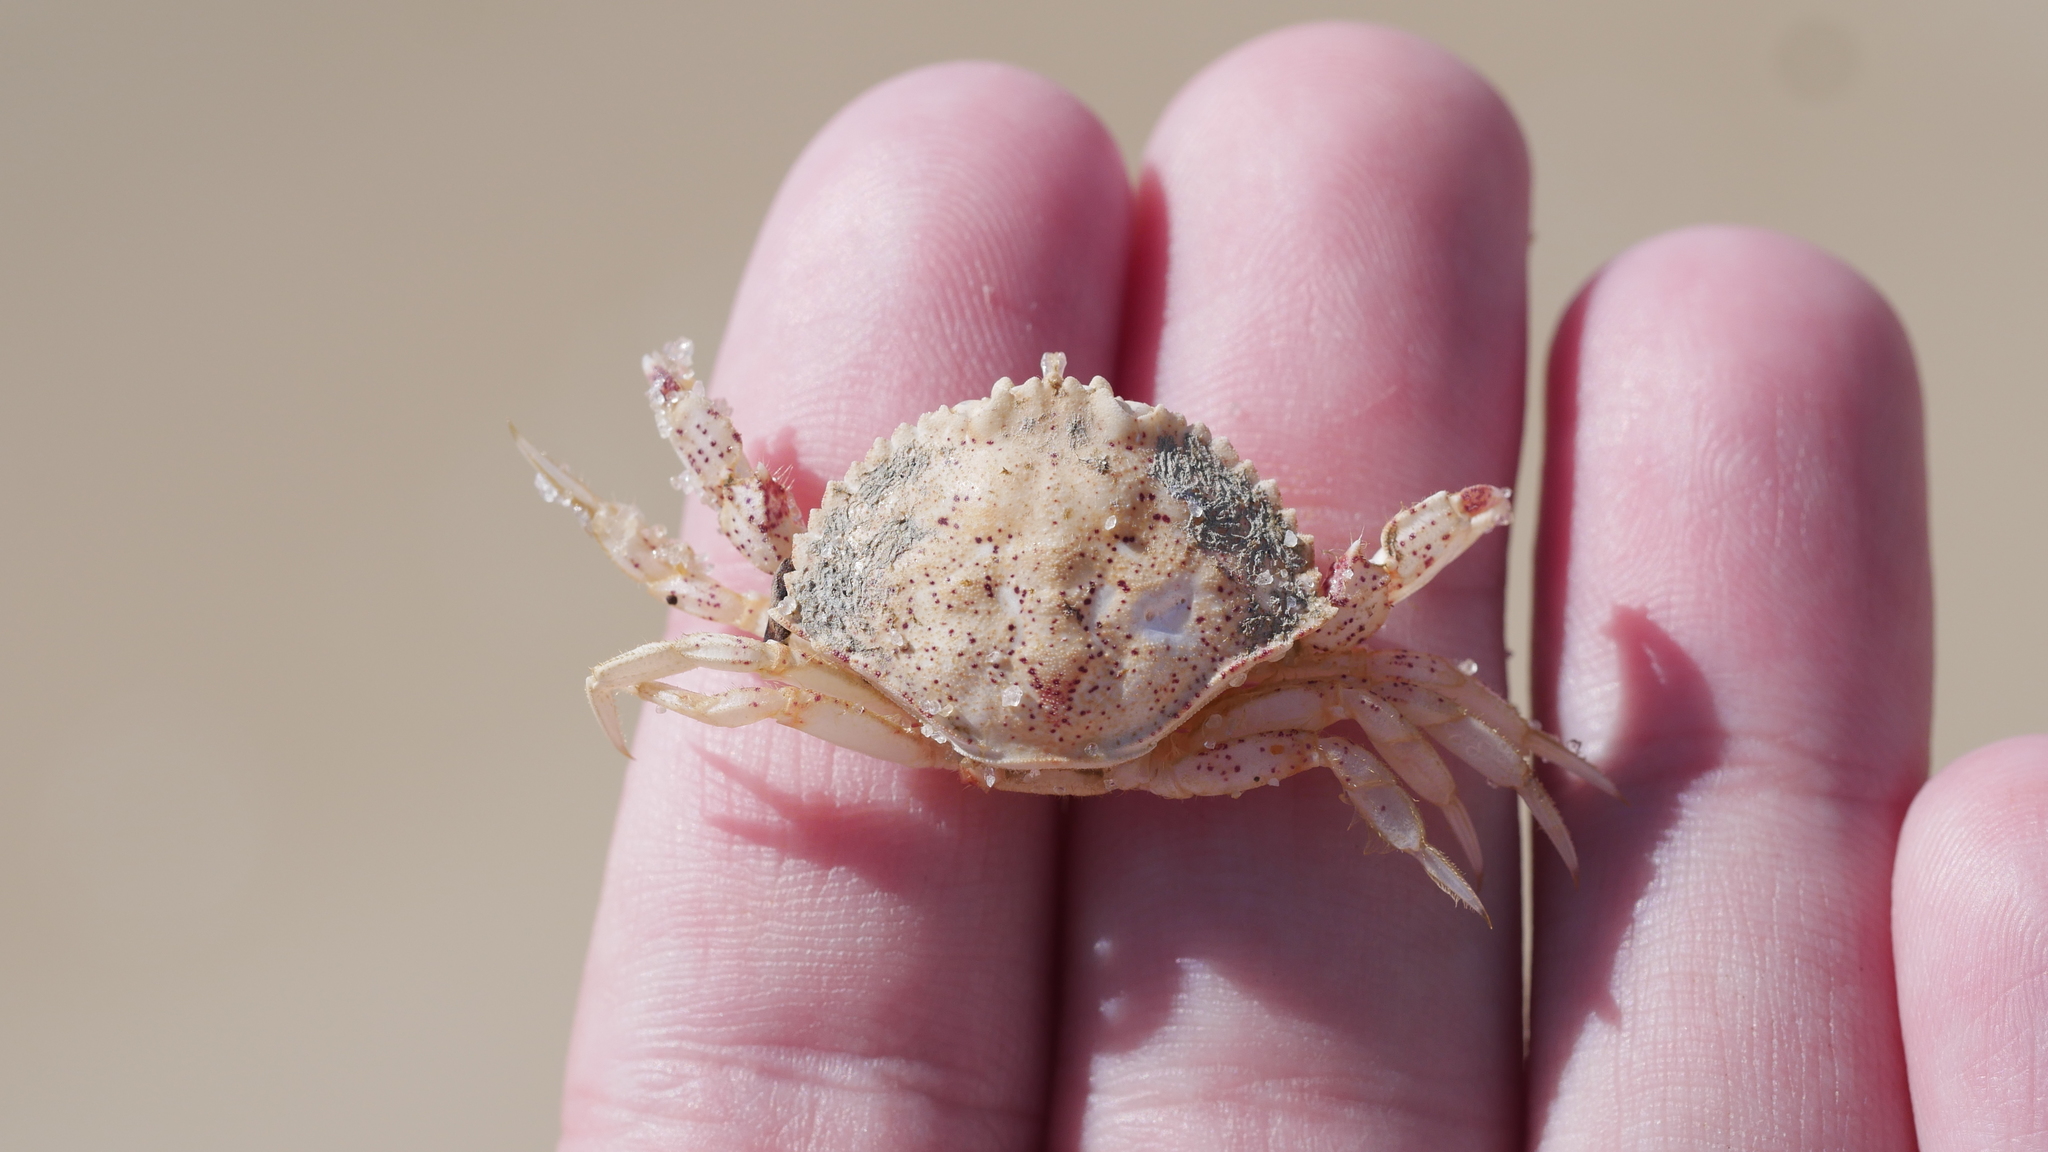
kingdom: Animalia
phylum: Arthropoda
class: Malacostraca
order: Decapoda
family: Cancridae
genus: Cancer
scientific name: Cancer irroratus
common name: Atlantic rock crab
